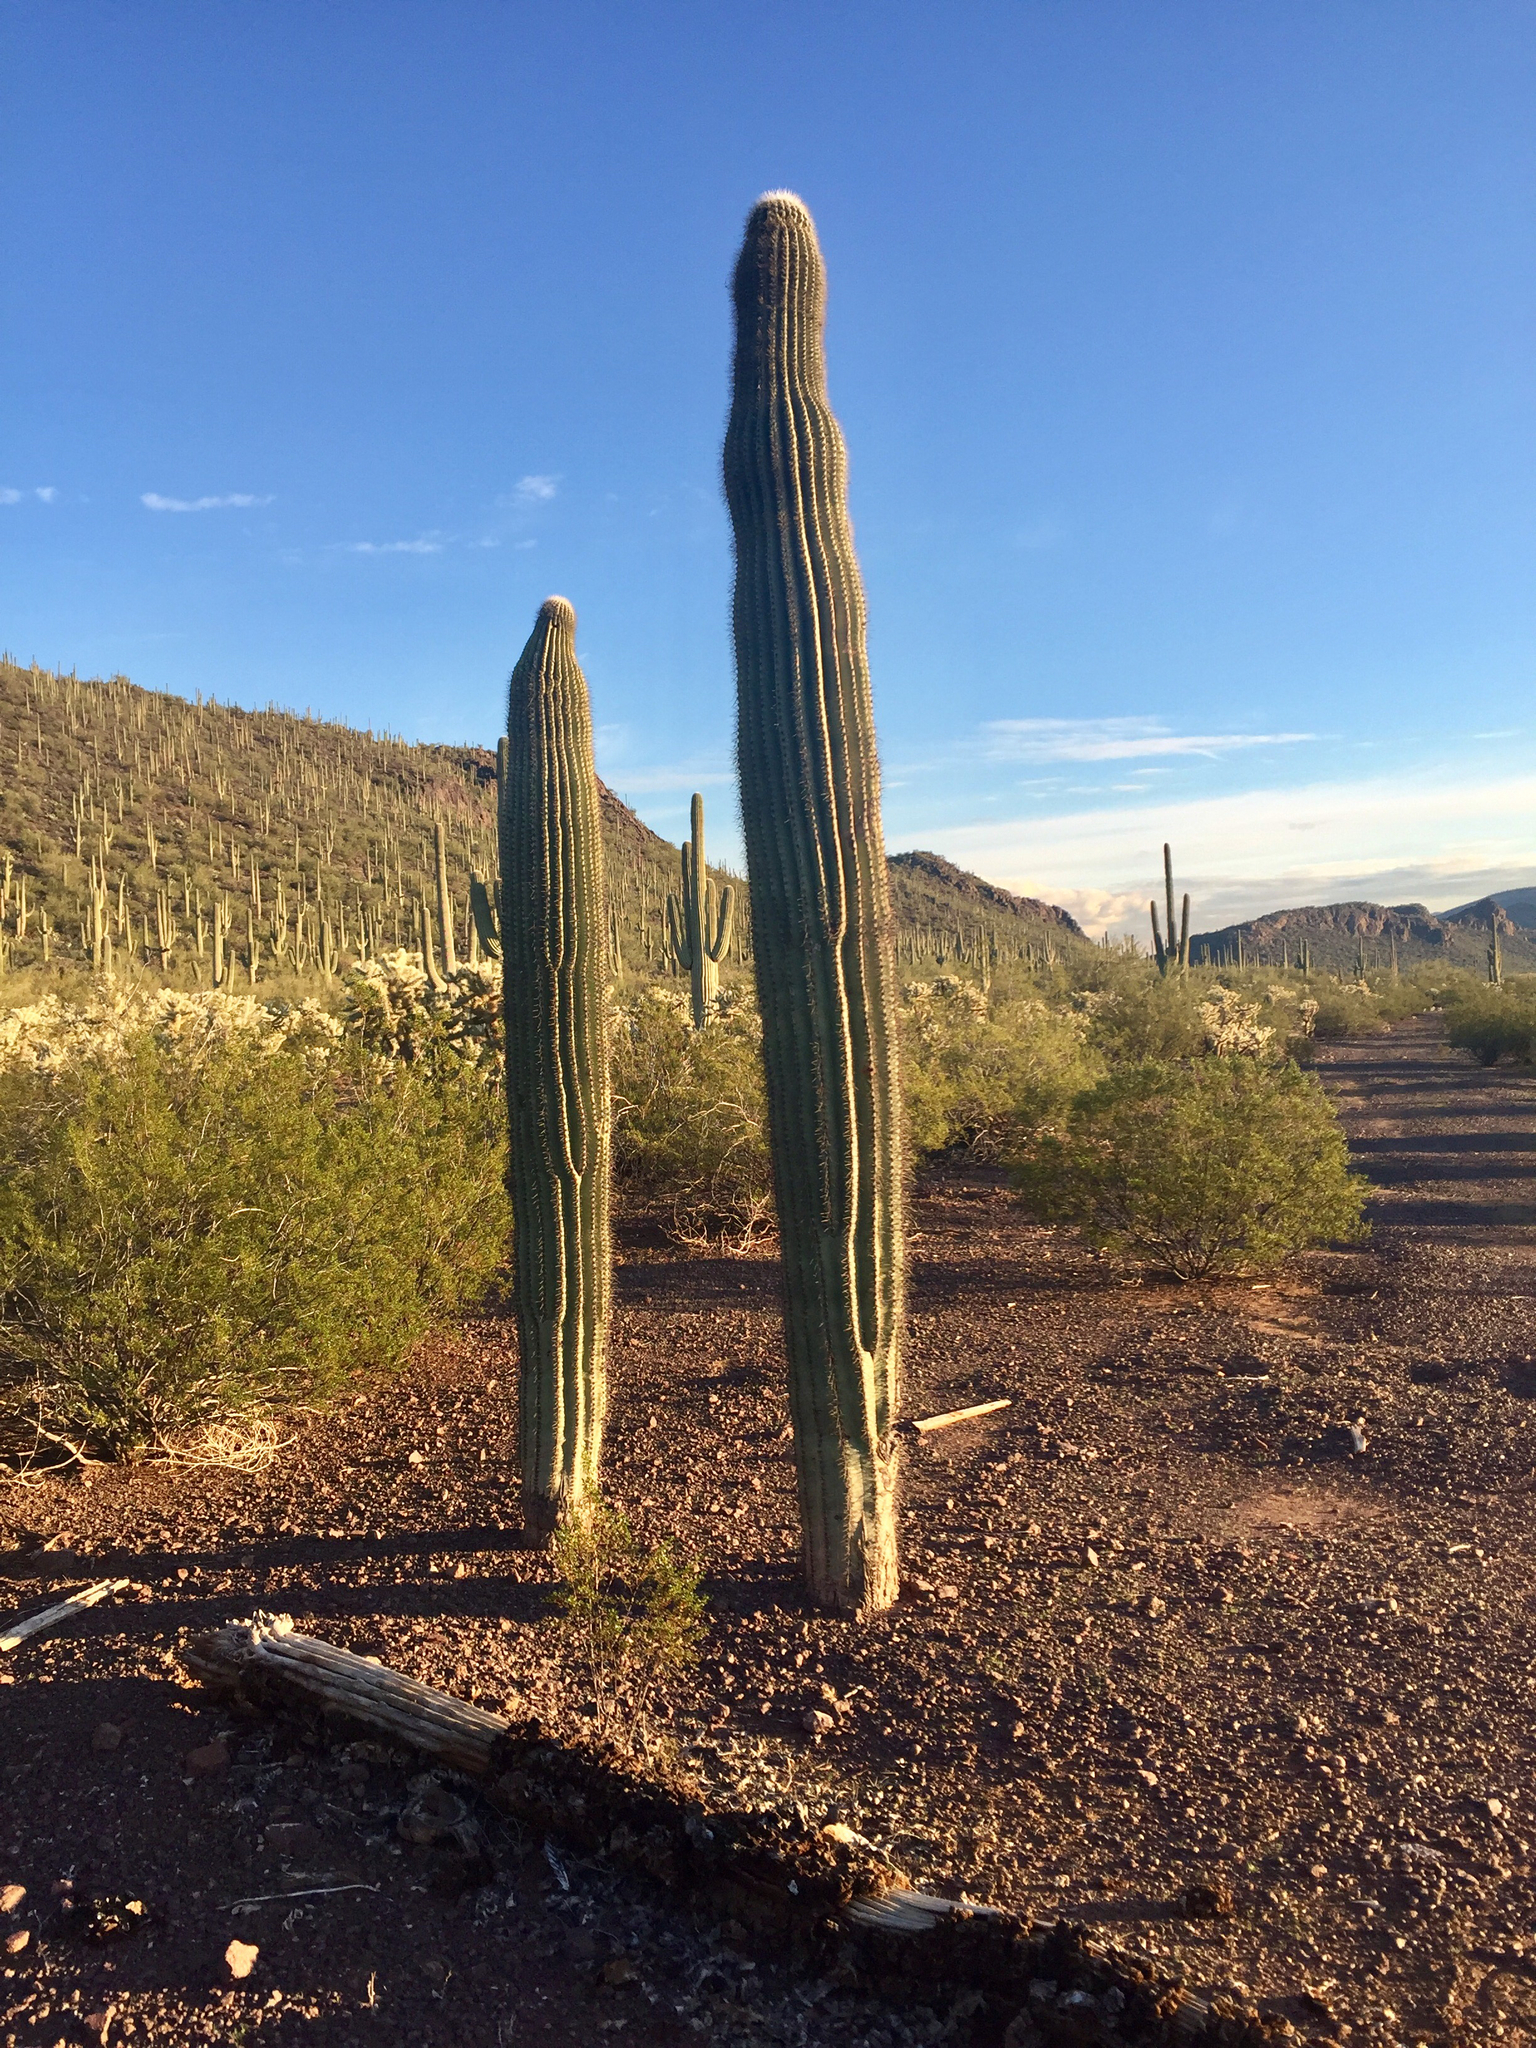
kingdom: Plantae
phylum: Tracheophyta
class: Magnoliopsida
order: Caryophyllales
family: Cactaceae
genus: Carnegiea
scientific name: Carnegiea gigantea
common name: Saguaro
